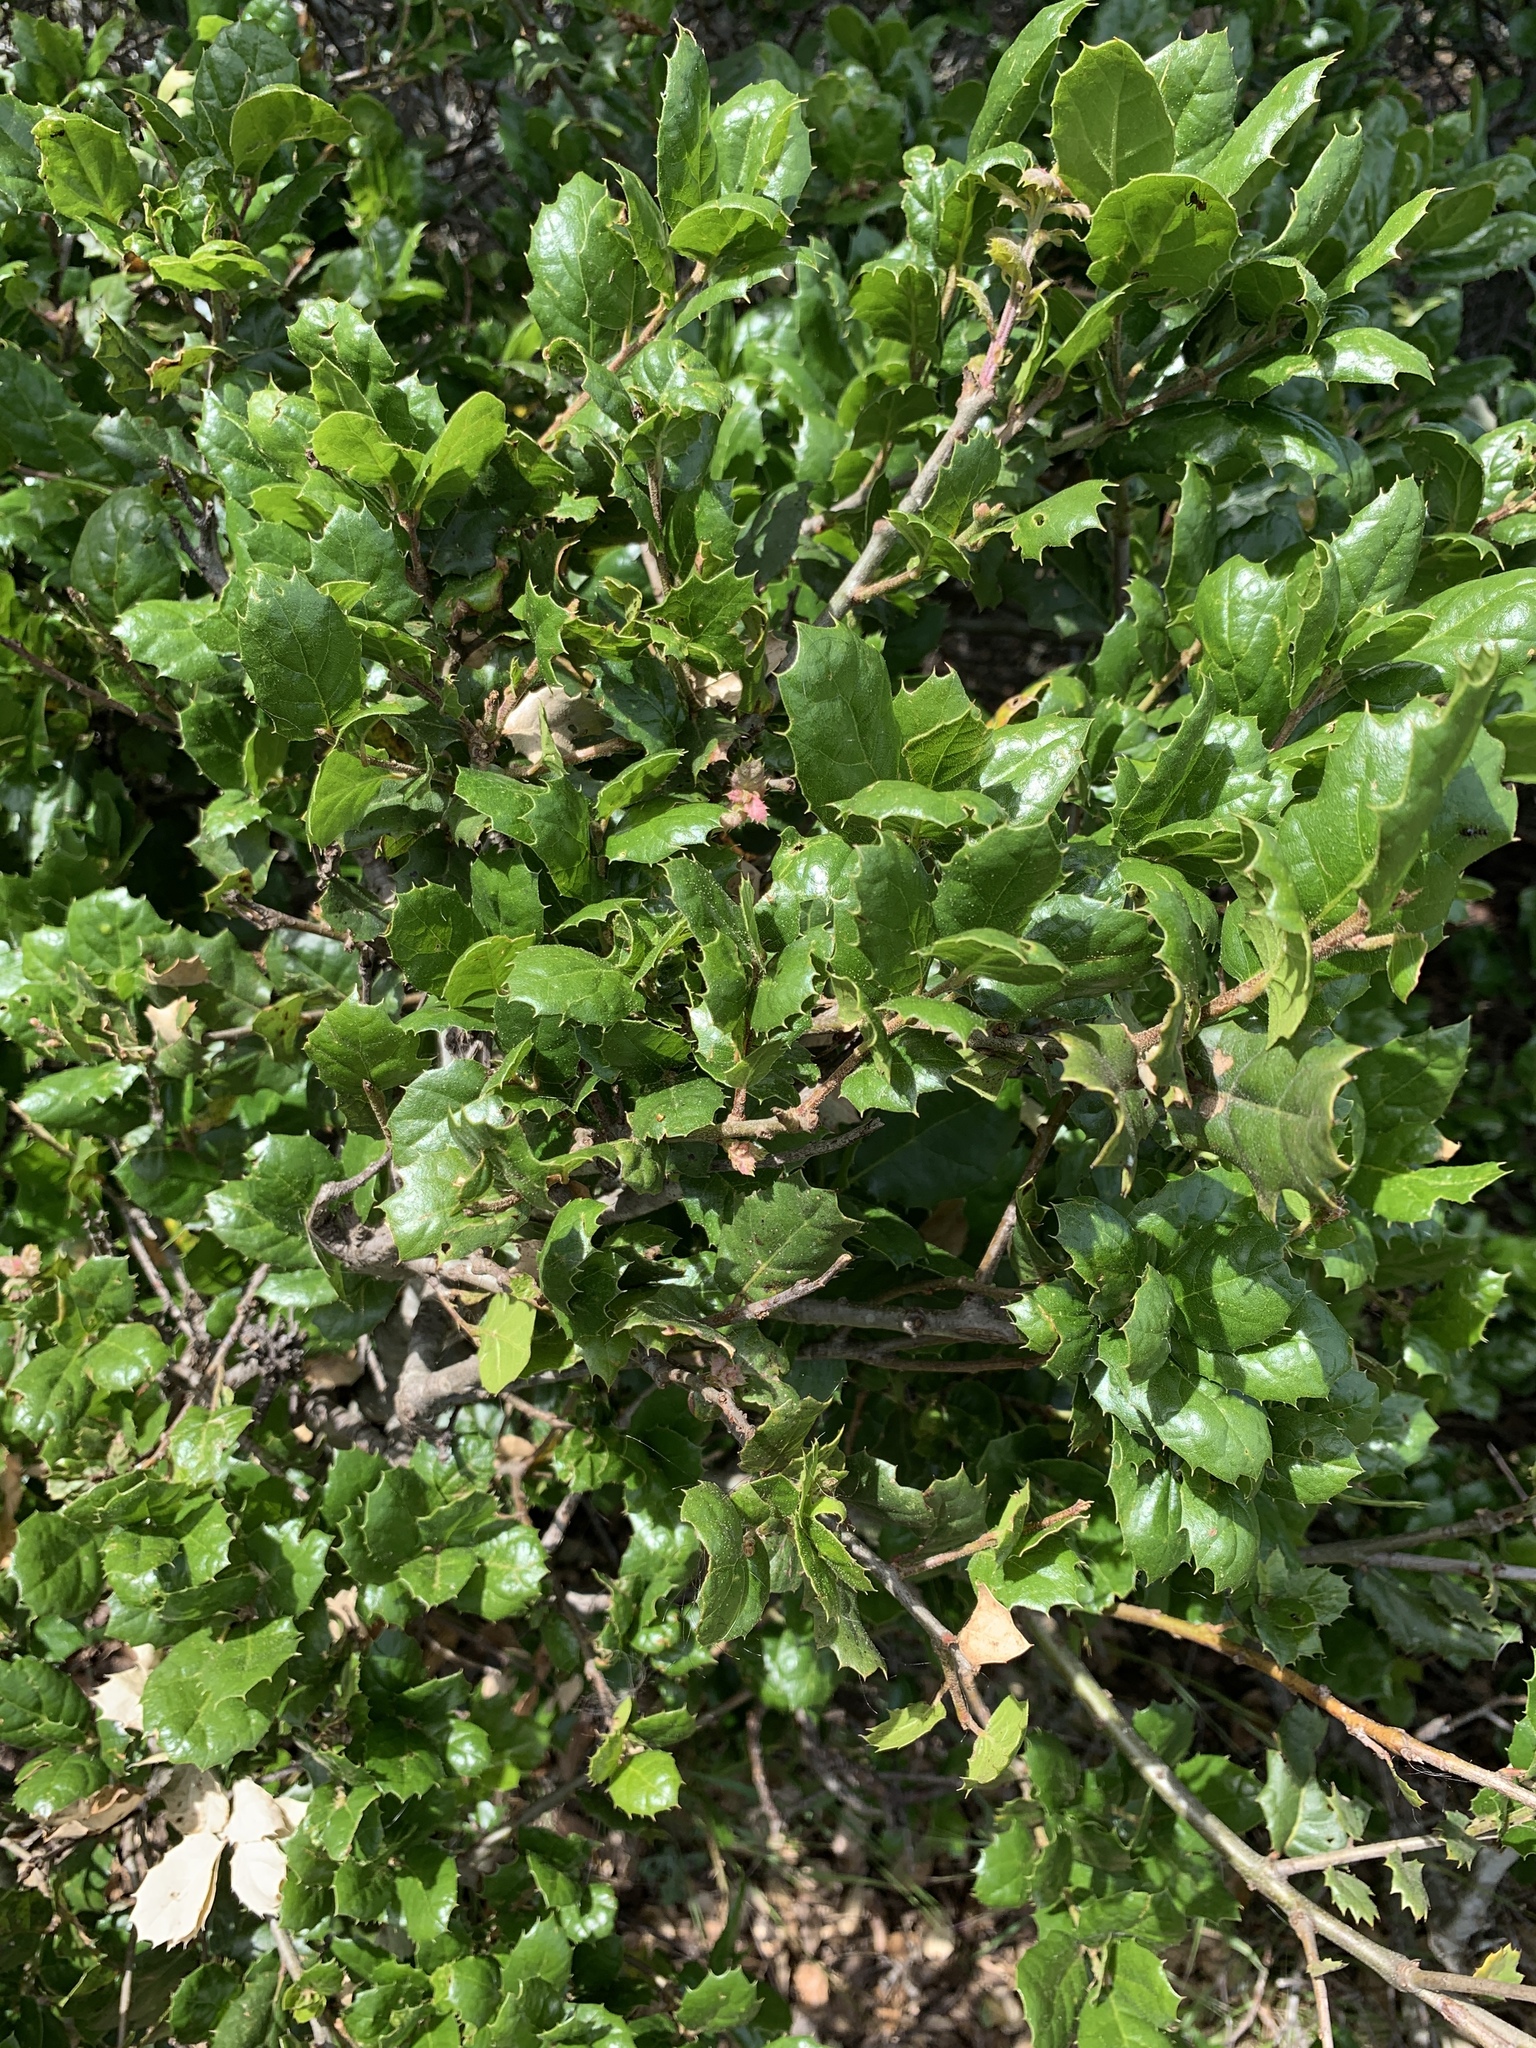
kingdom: Plantae
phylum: Tracheophyta
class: Magnoliopsida
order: Fagales
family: Fagaceae
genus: Quercus
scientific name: Quercus agrifolia
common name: California live oak
